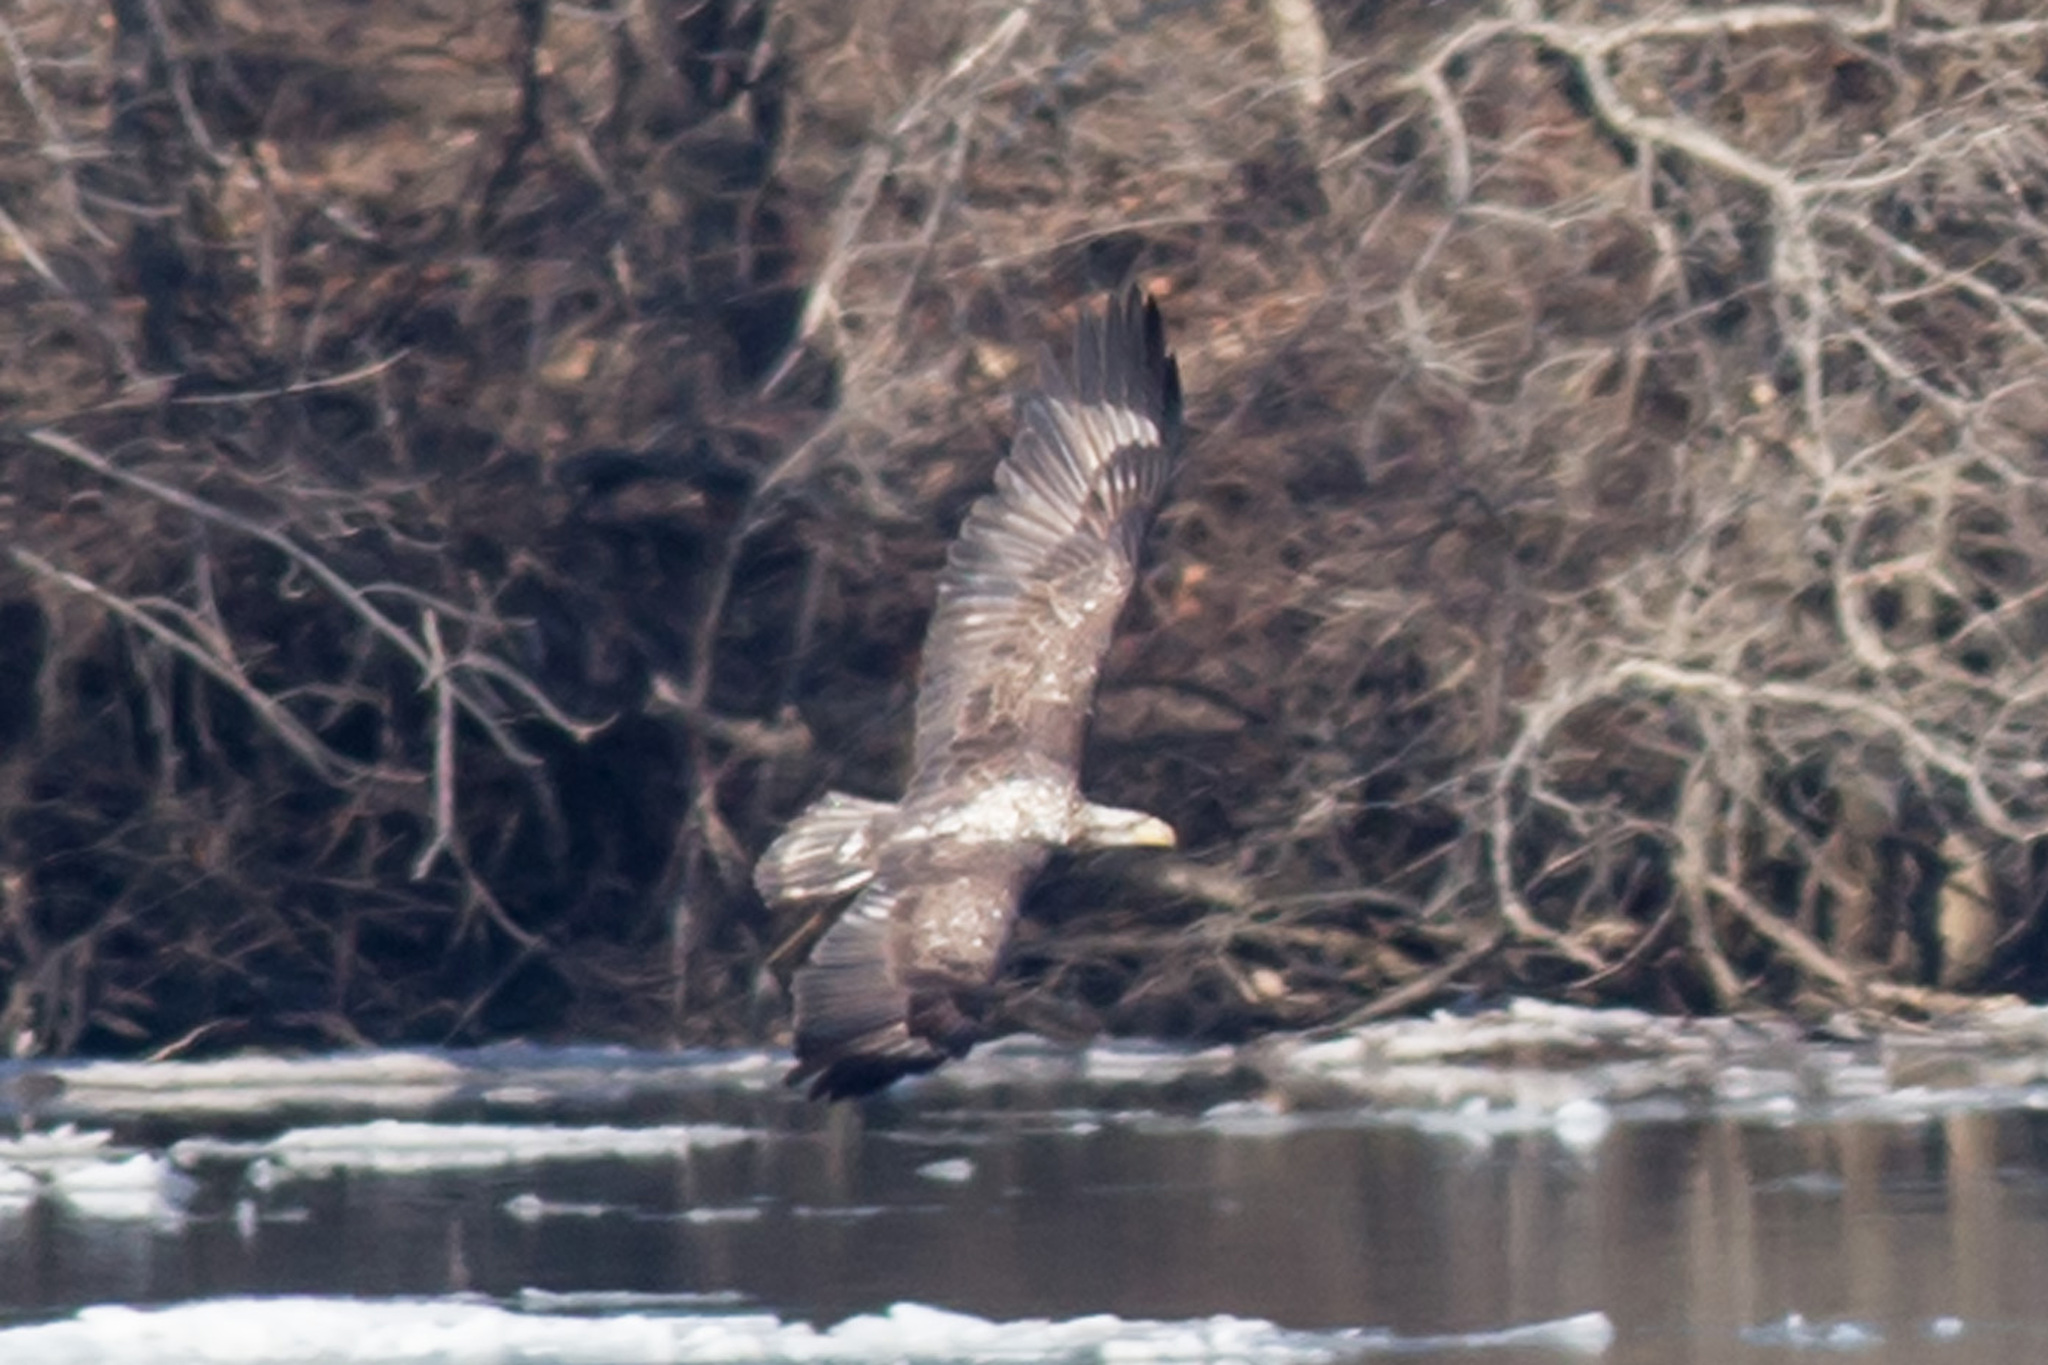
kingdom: Animalia
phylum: Chordata
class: Aves
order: Accipitriformes
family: Accipitridae
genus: Haliaeetus
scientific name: Haliaeetus leucocephalus
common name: Bald eagle
